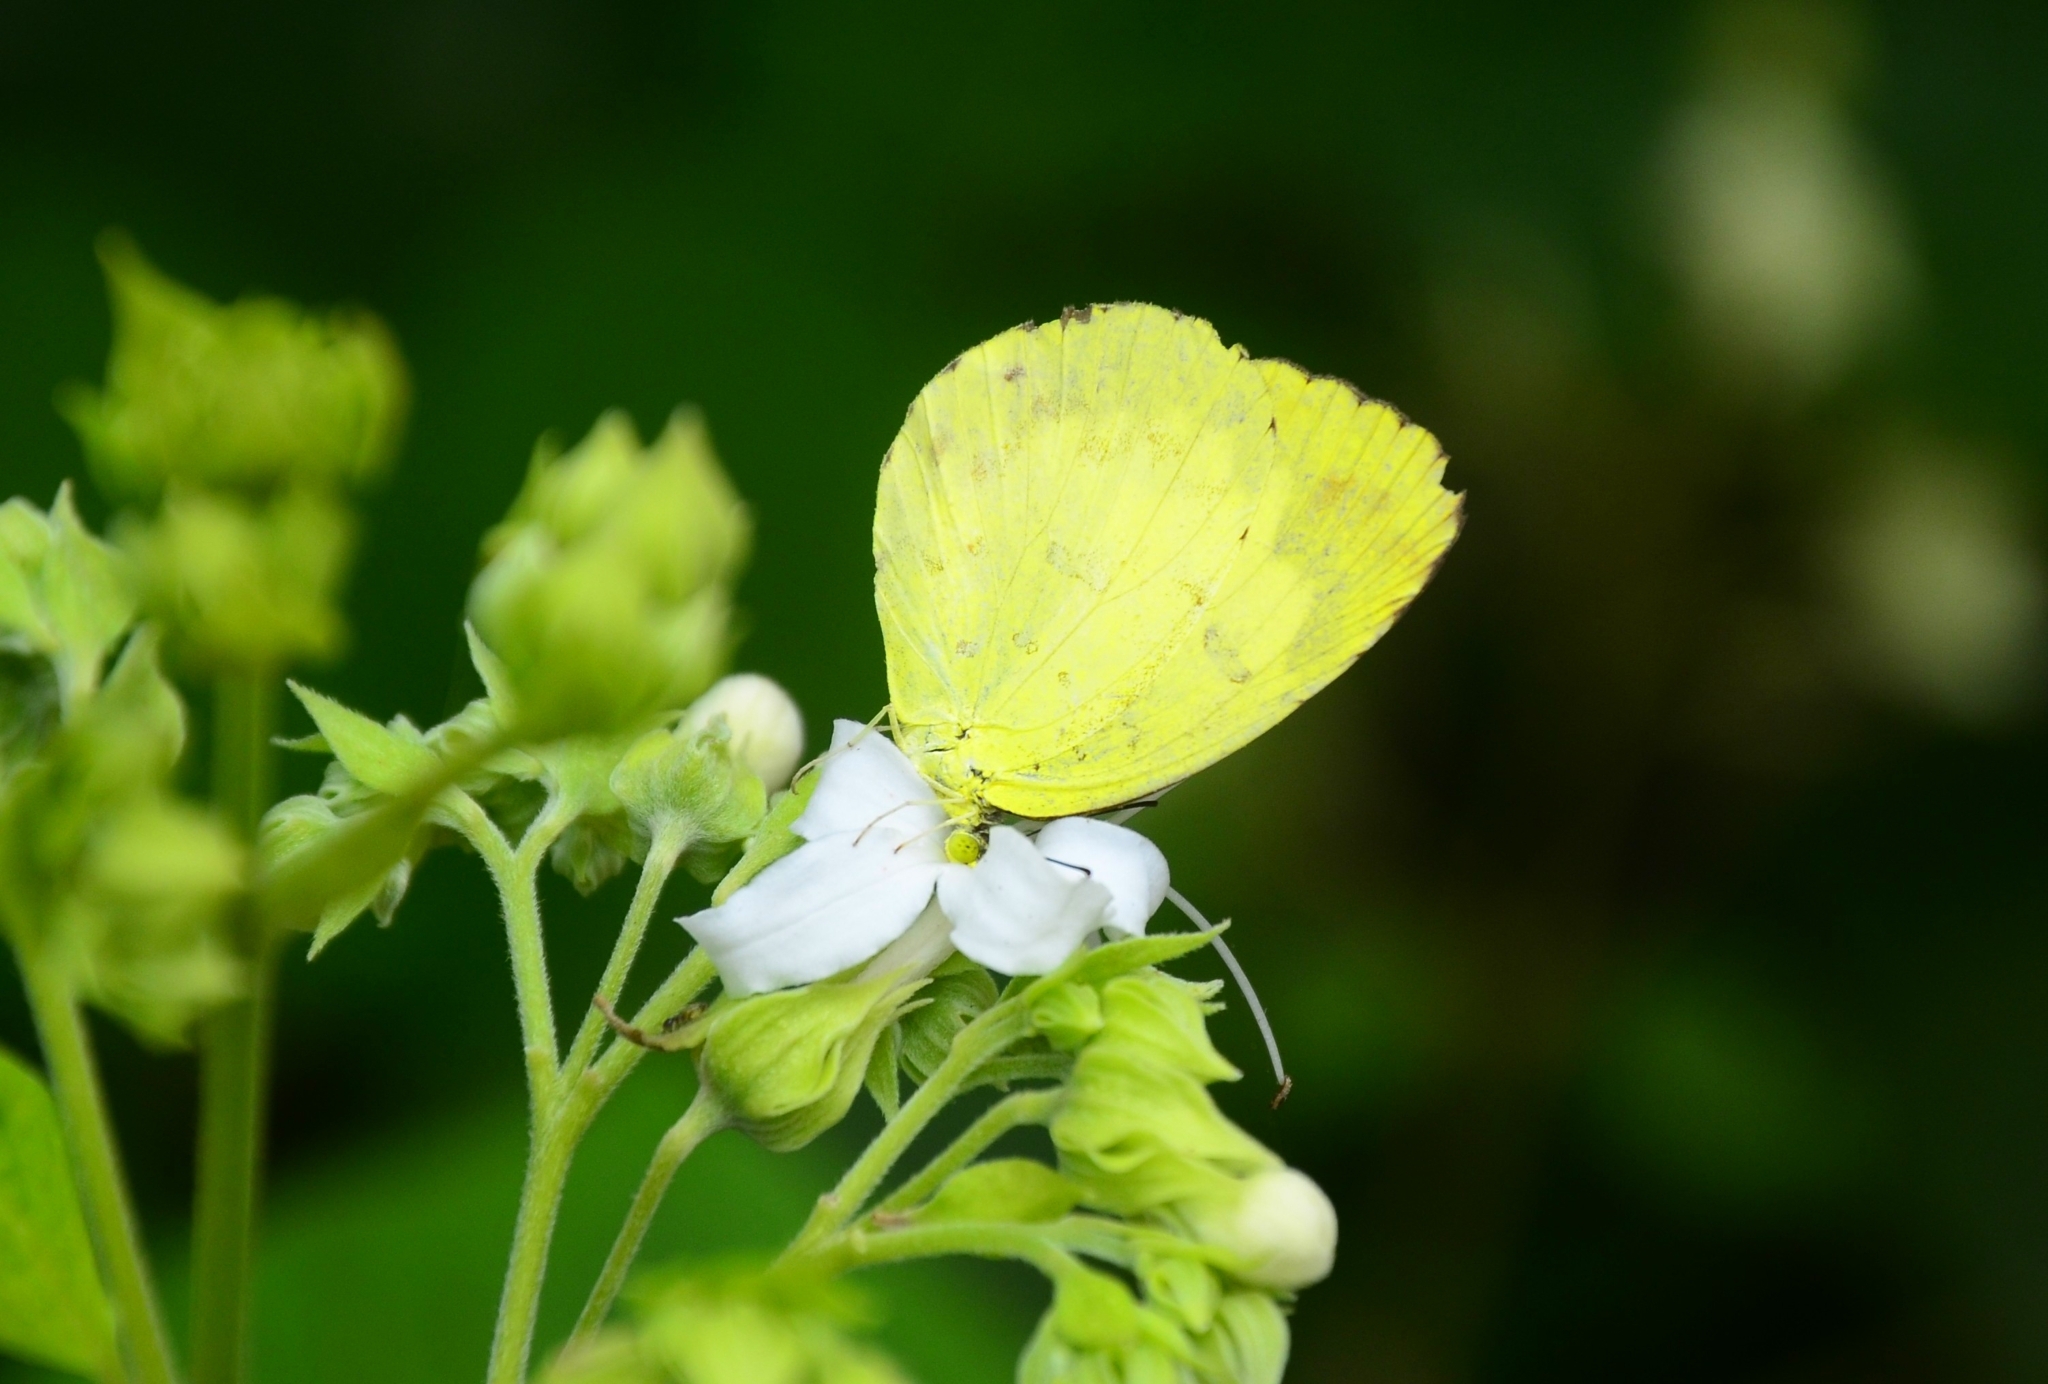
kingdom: Animalia
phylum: Arthropoda
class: Insecta
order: Lepidoptera
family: Pieridae
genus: Eurema
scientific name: Eurema blanda
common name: Three-spot grass yellow
